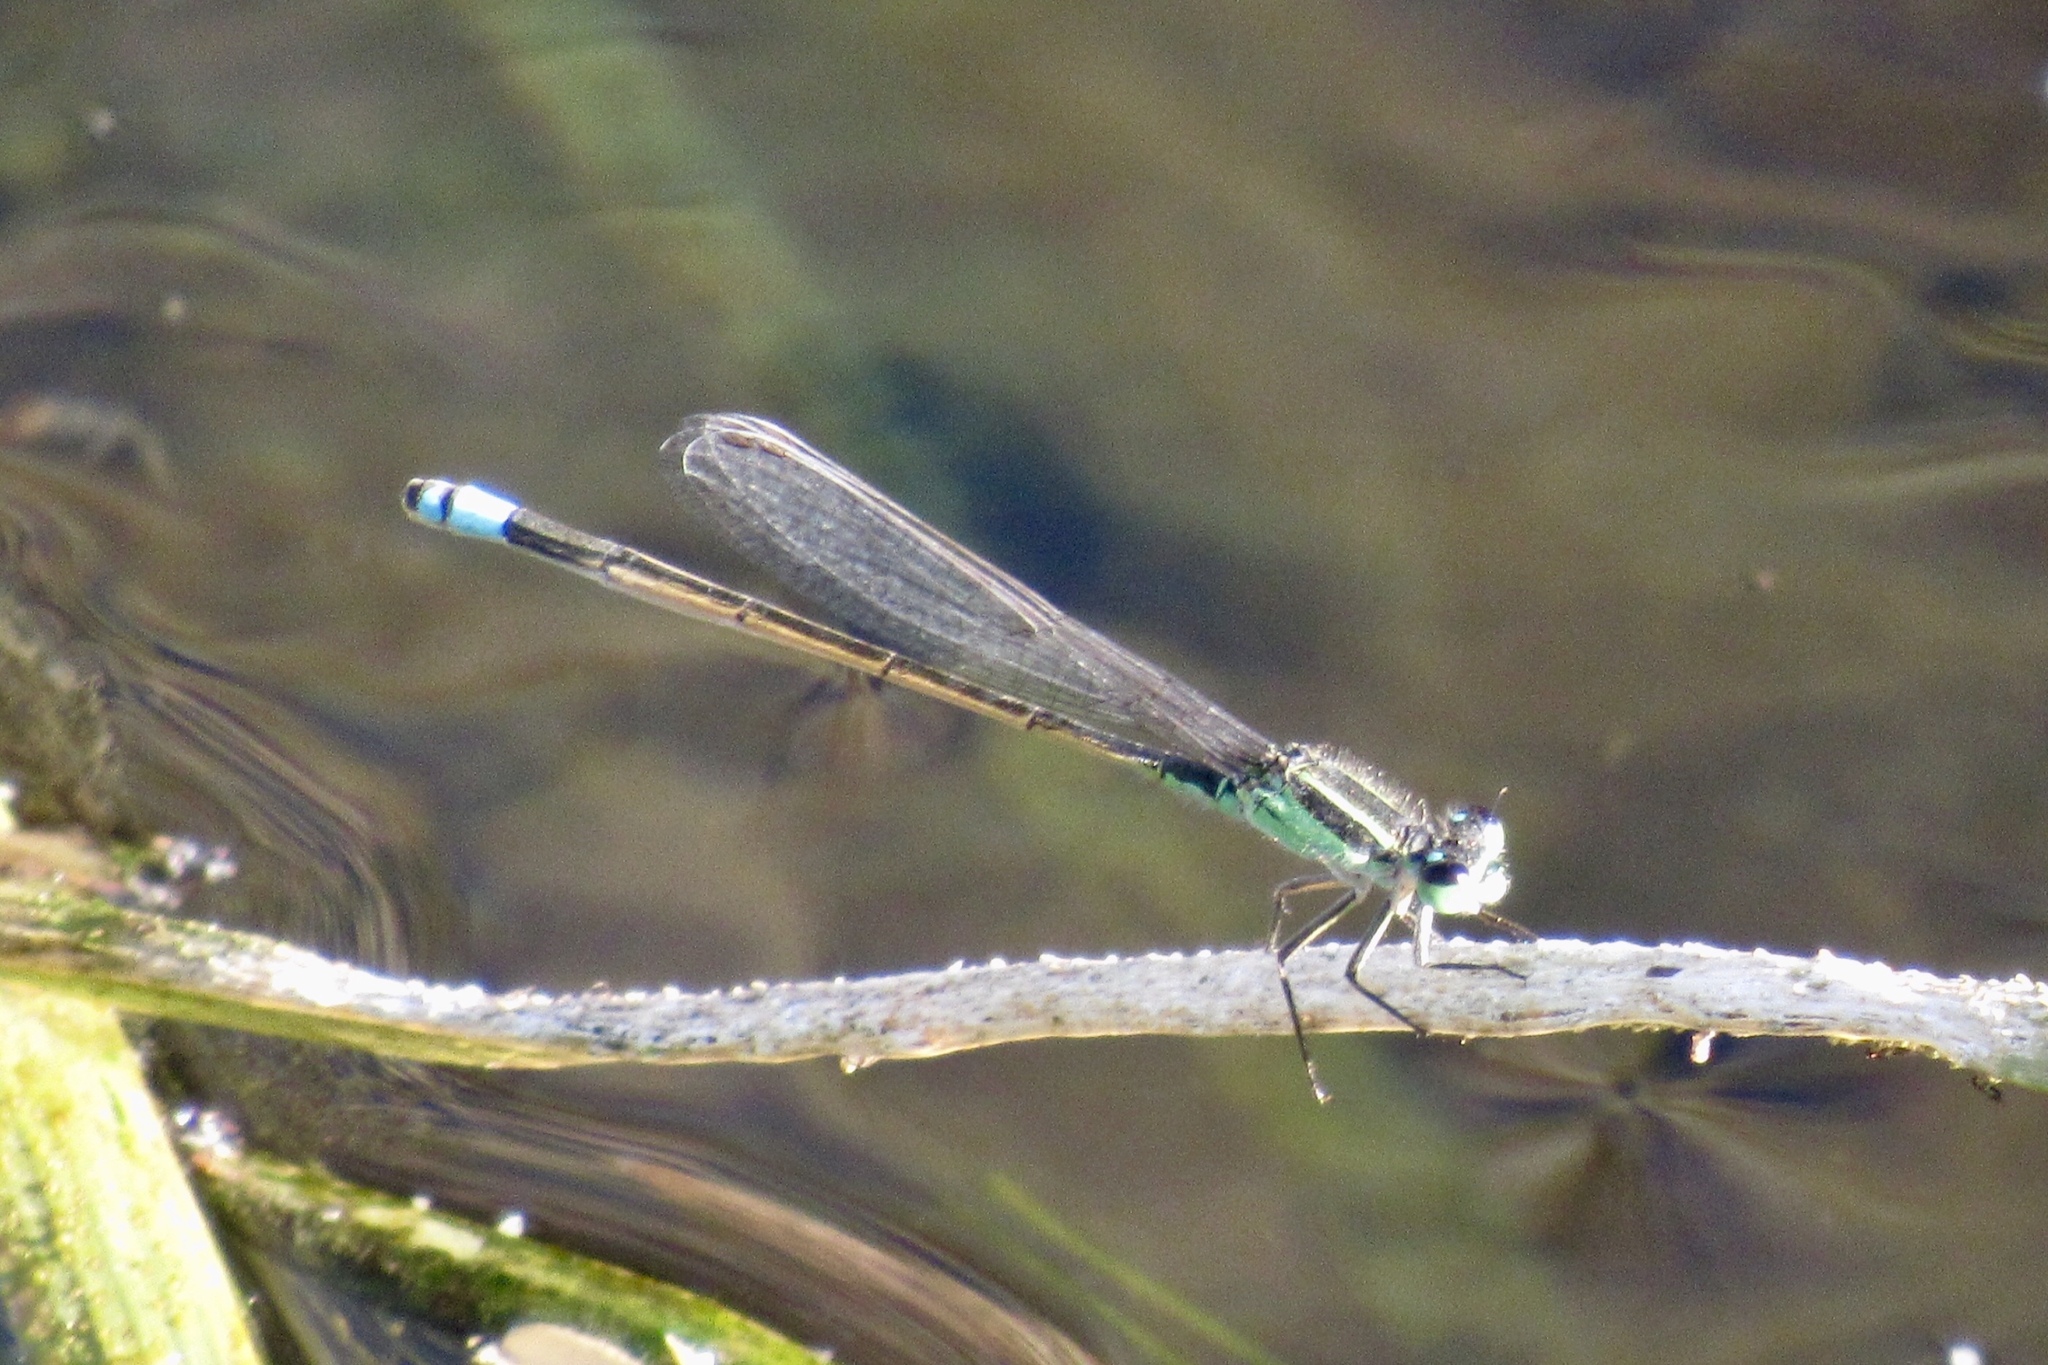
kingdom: Animalia
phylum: Arthropoda
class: Insecta
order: Odonata
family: Coenagrionidae
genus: Ischnura
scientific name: Ischnura ramburii
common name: Rambur's forktail
